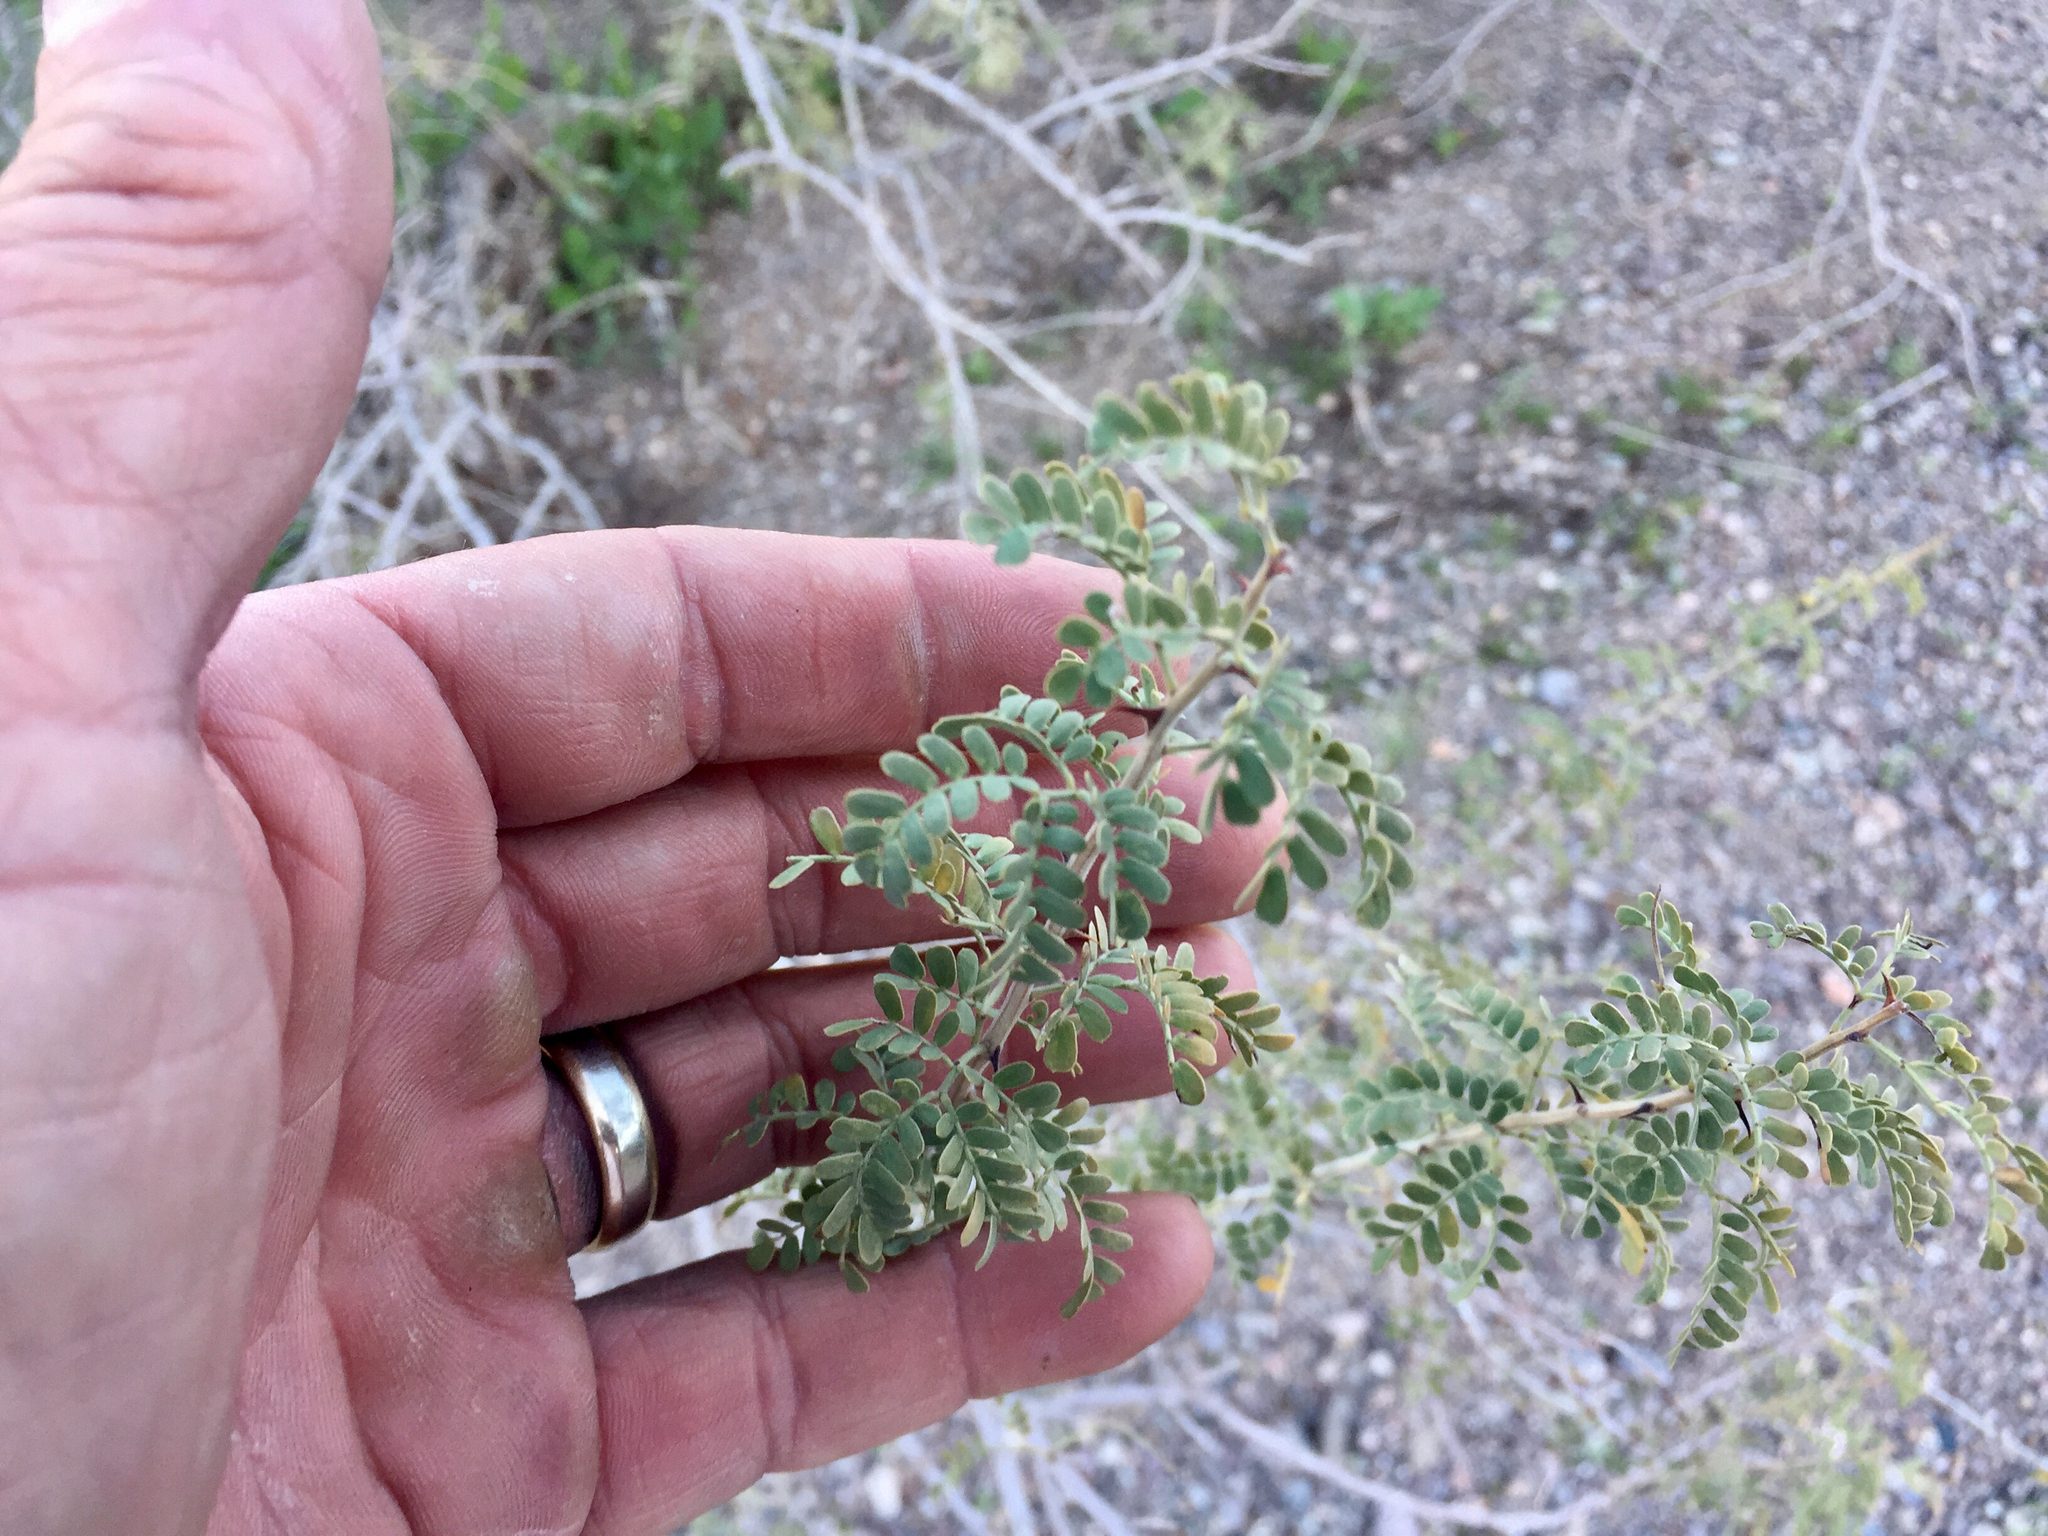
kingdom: Plantae
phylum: Tracheophyta
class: Magnoliopsida
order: Fabales
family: Fabaceae
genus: Senegalia
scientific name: Senegalia greggii
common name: Texas-mimosa
